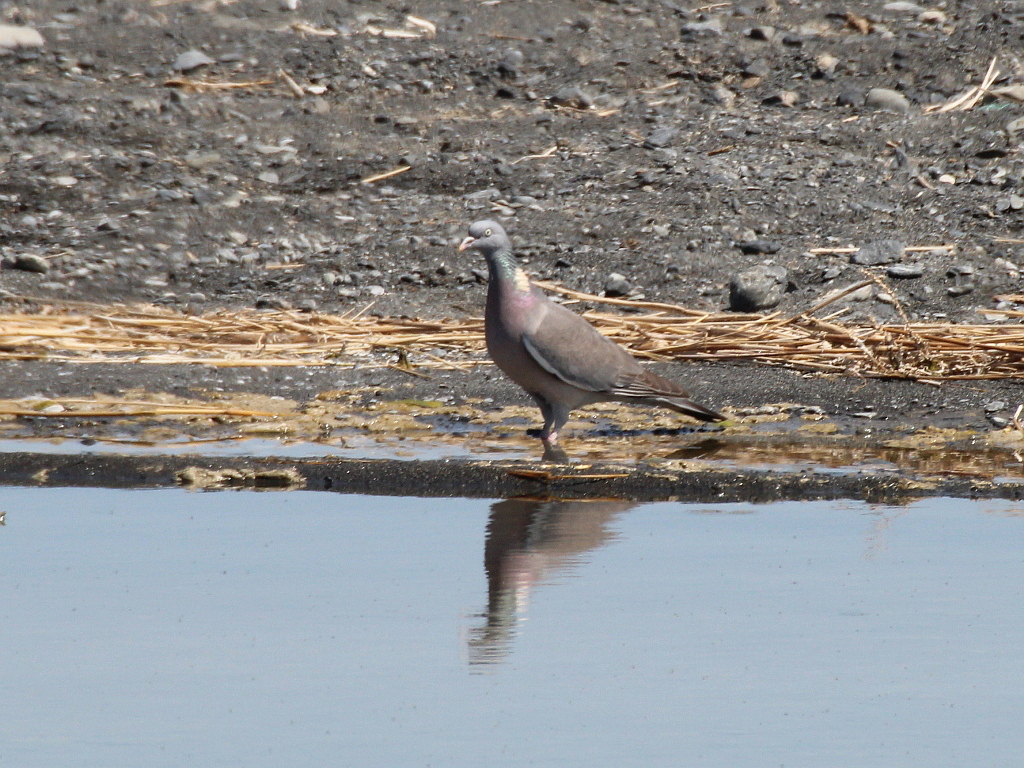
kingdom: Animalia
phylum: Chordata
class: Aves
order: Columbiformes
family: Columbidae
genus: Columba
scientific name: Columba palumbus
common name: Common wood pigeon
